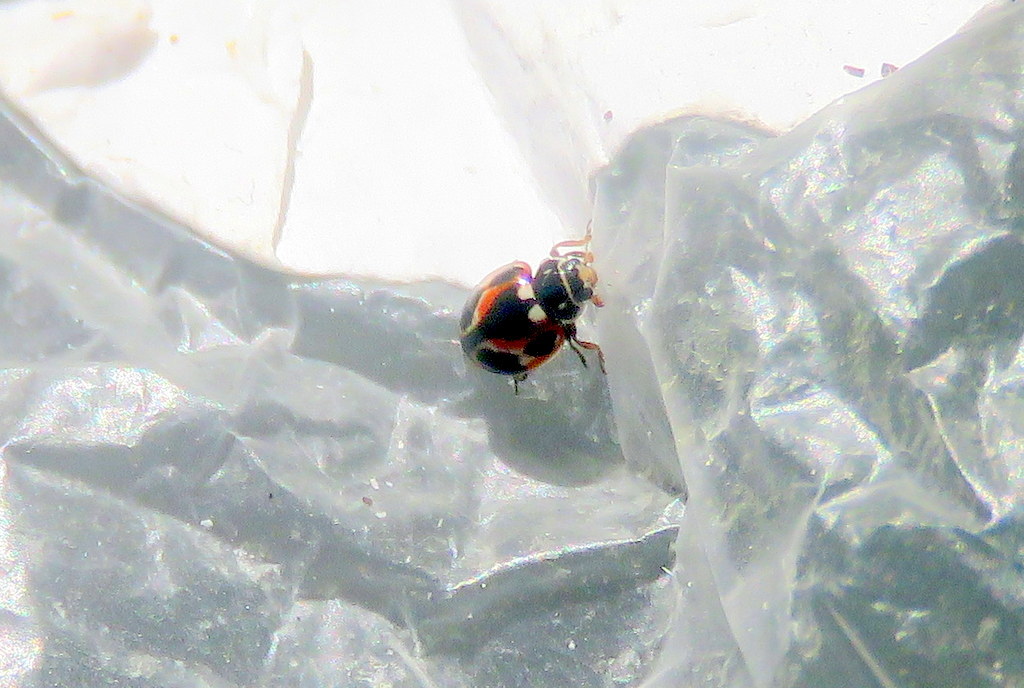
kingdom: Animalia
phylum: Arthropoda
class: Insecta
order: Coleoptera
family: Coccinellidae
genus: Cycloneda
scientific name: Cycloneda ancoralis
